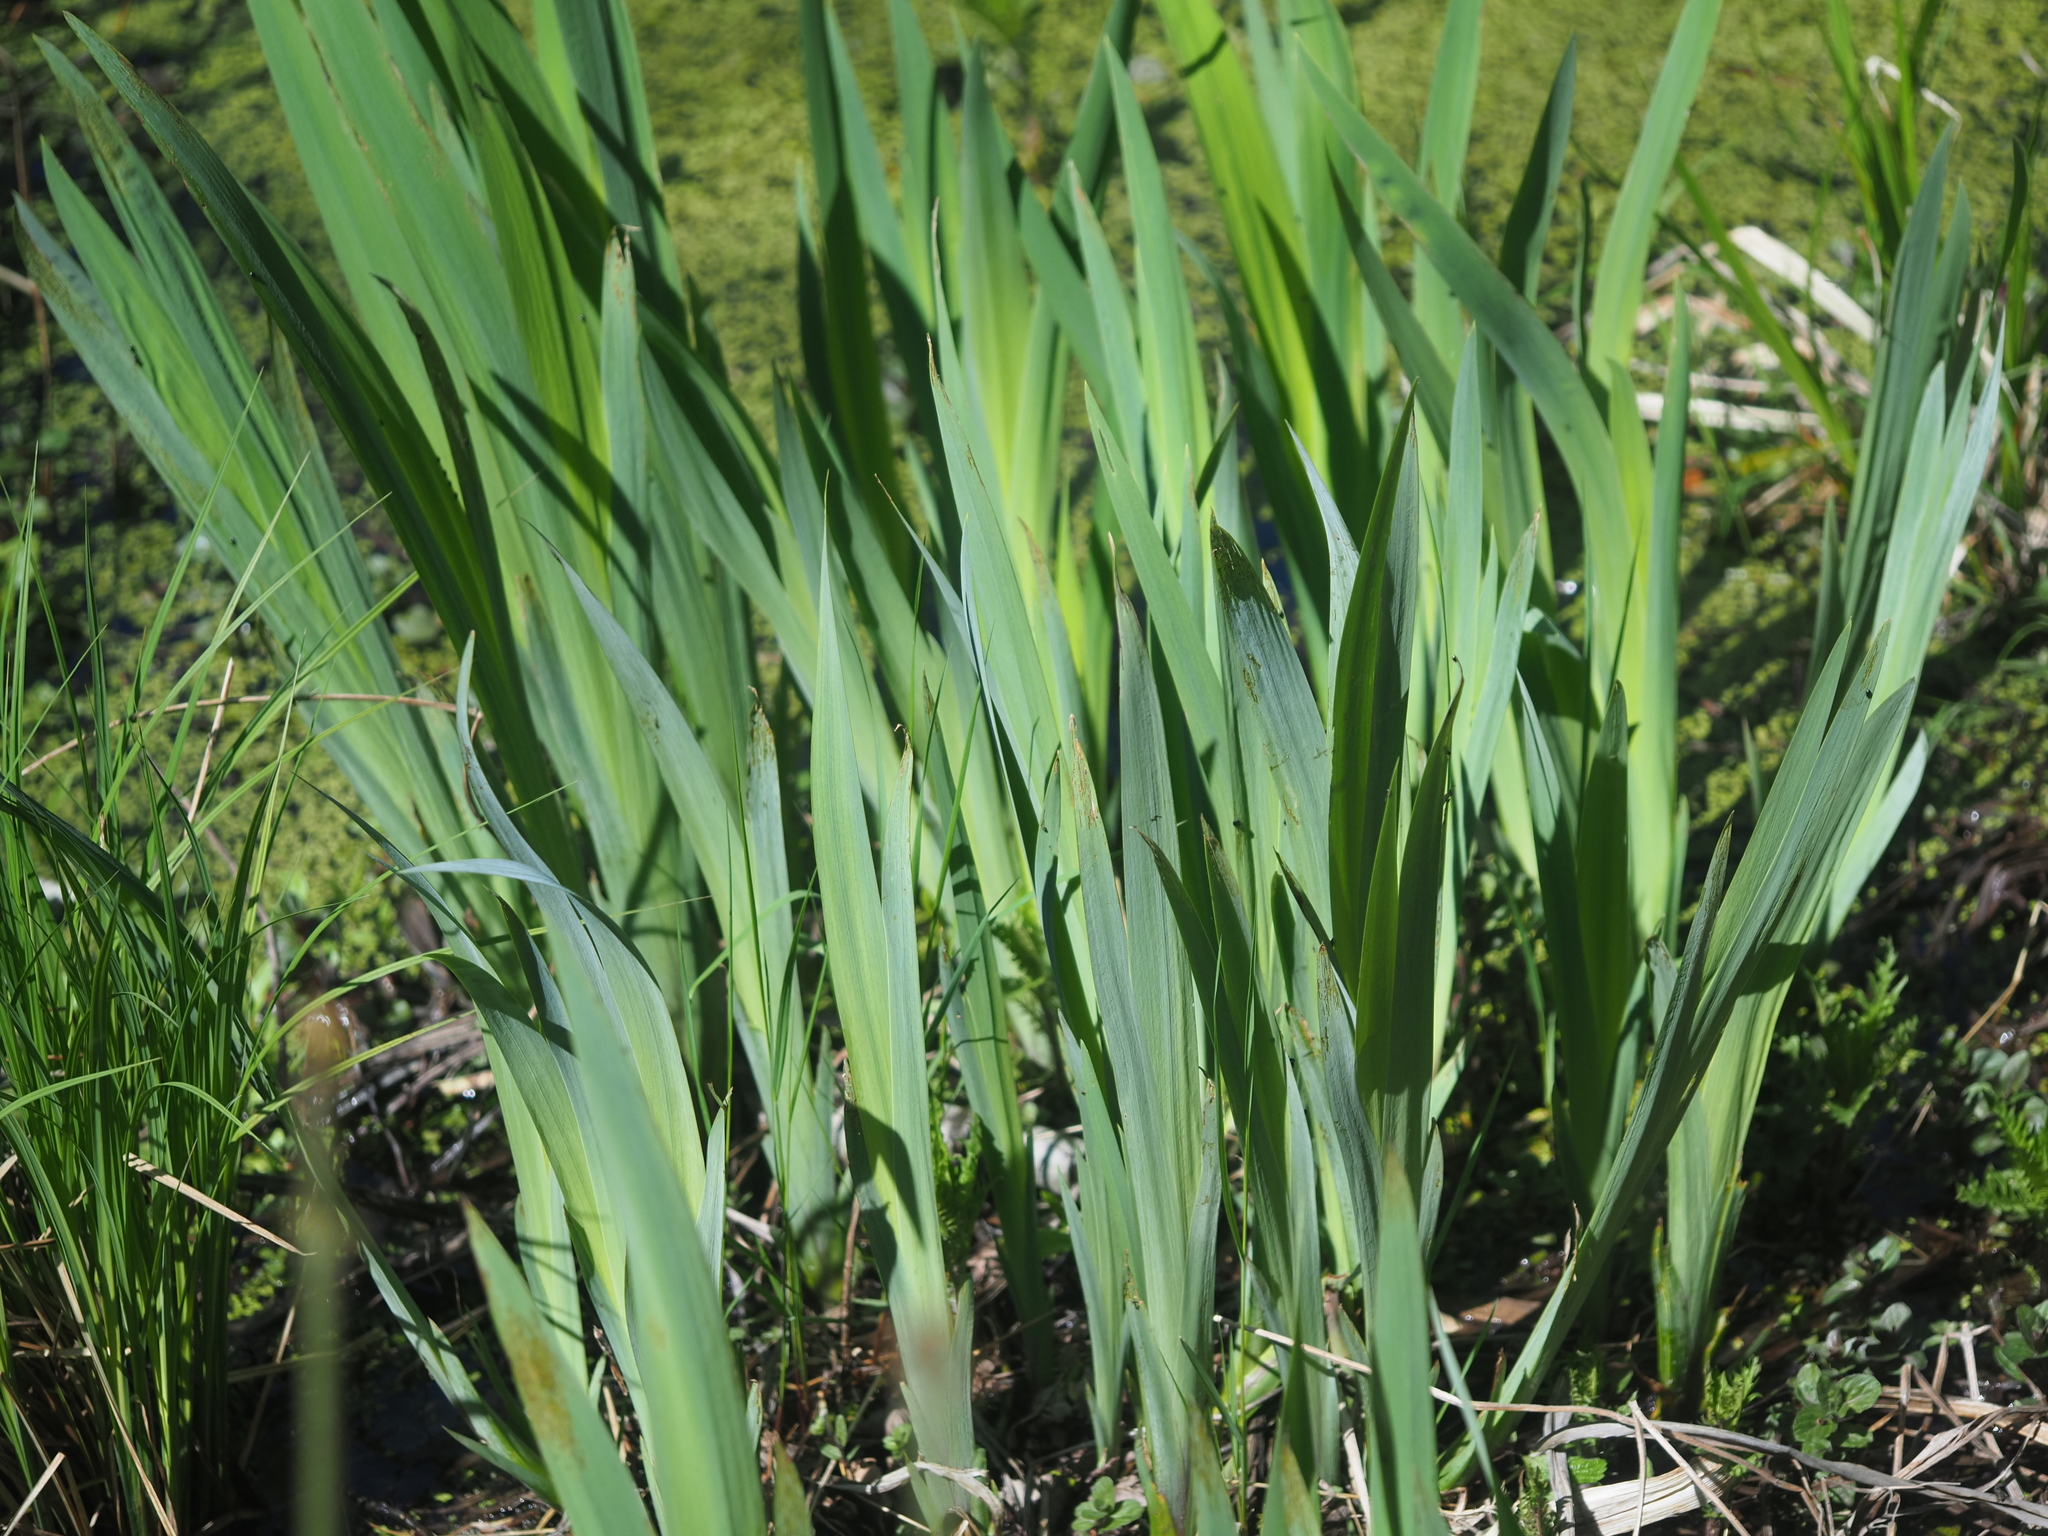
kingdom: Plantae
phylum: Tracheophyta
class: Liliopsida
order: Asparagales
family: Iridaceae
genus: Iris
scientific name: Iris pseudacorus
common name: Yellow flag
